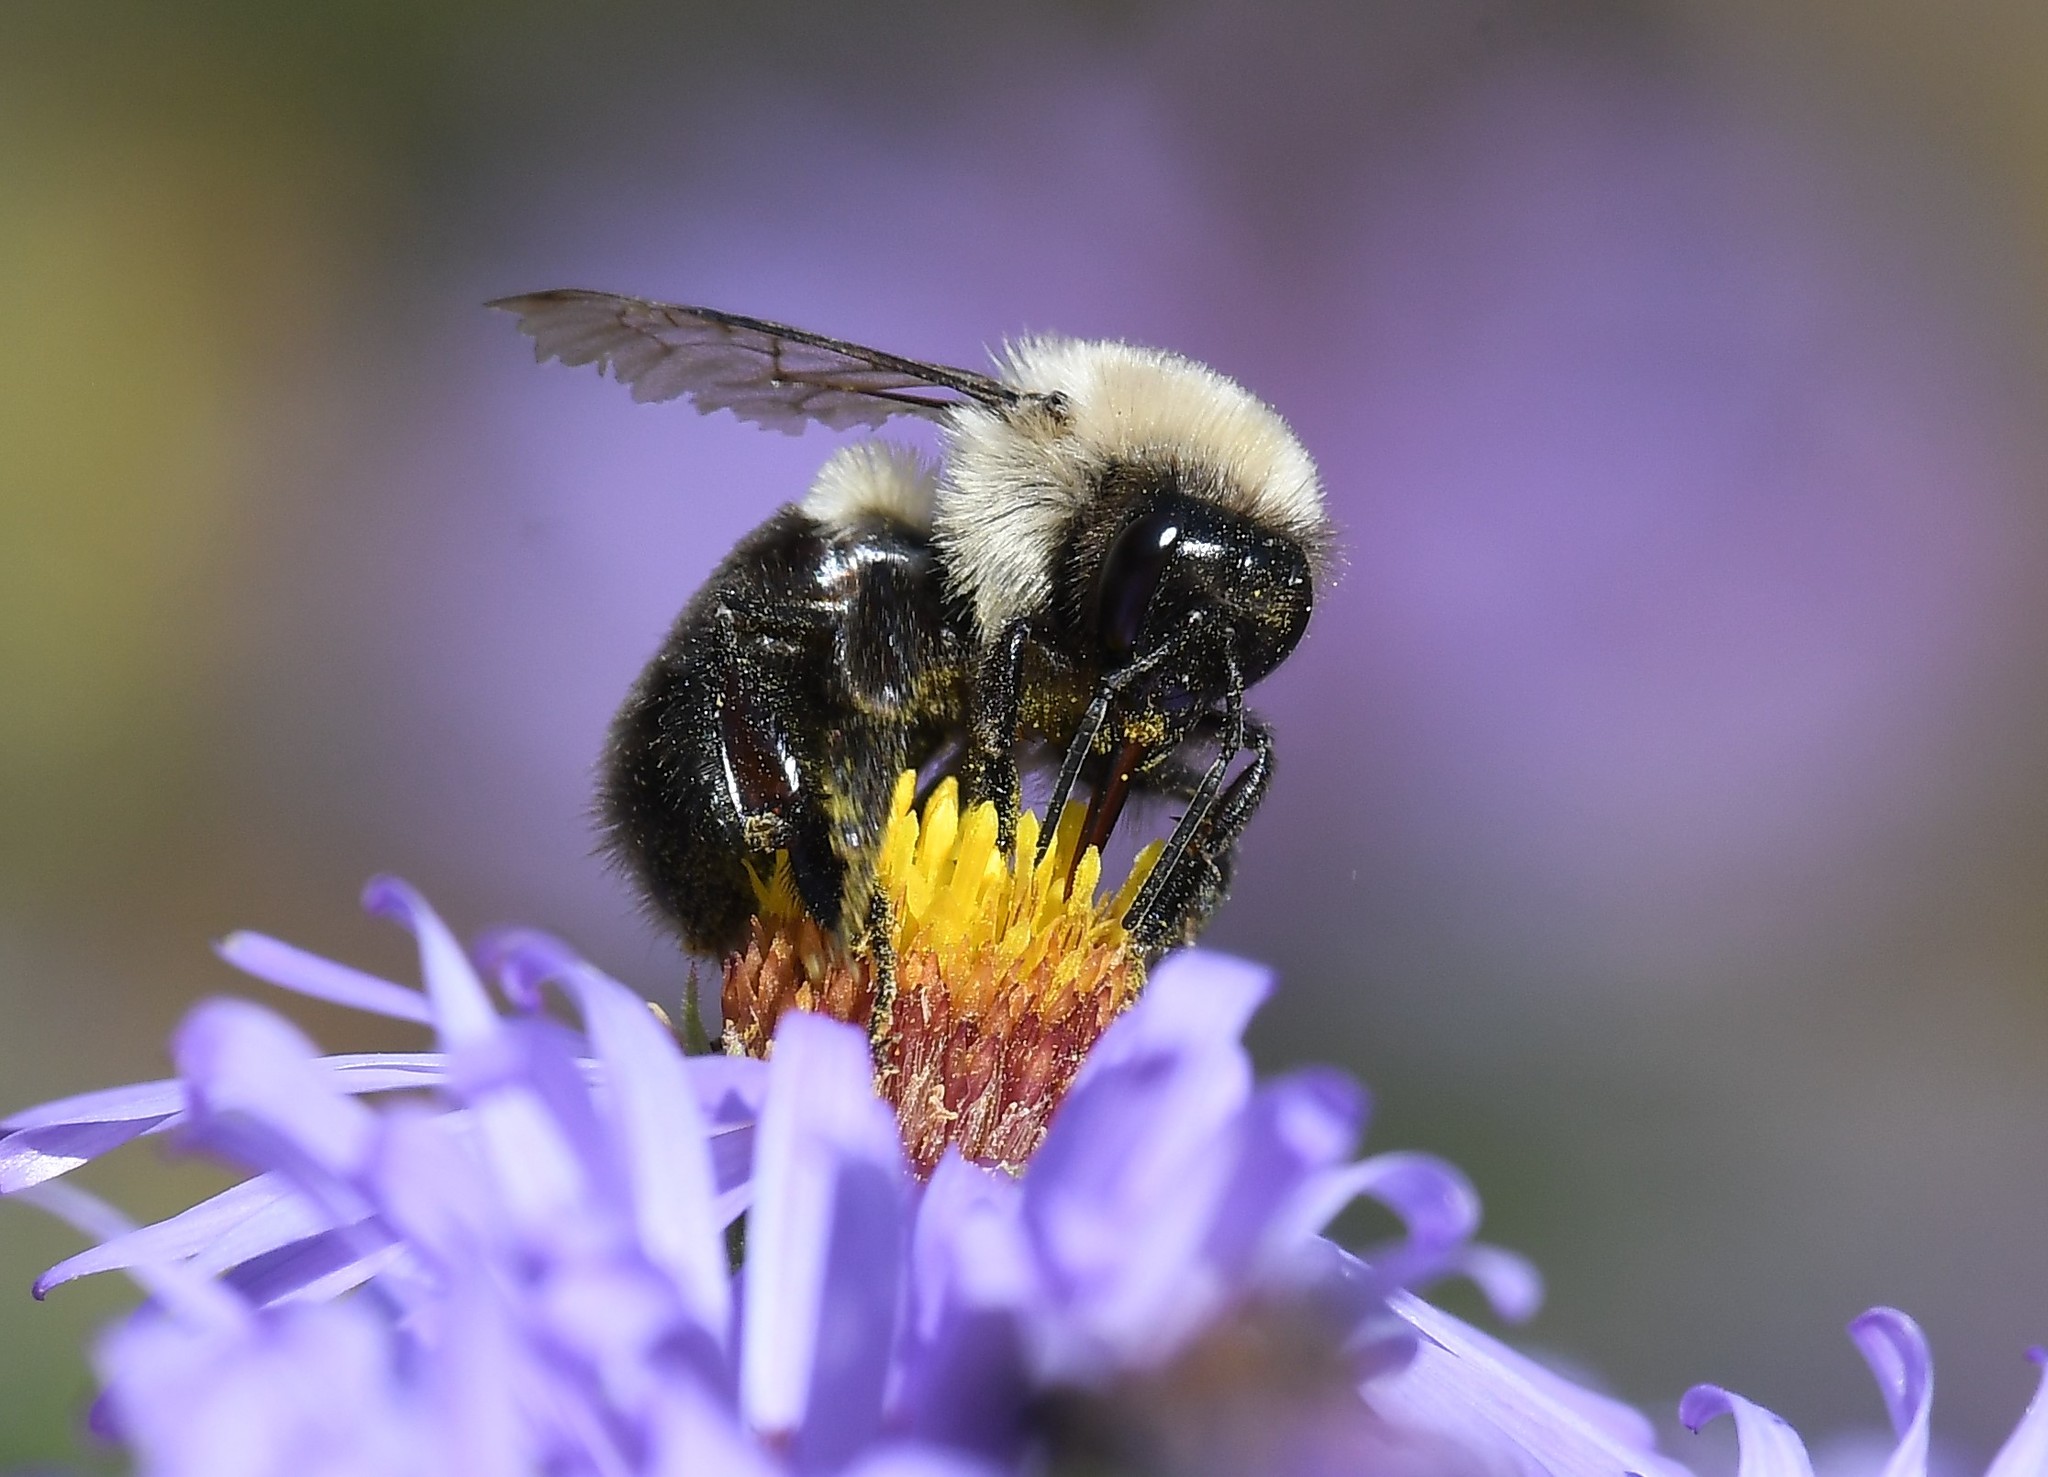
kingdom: Animalia
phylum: Arthropoda
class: Insecta
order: Hymenoptera
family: Apidae
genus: Bombus
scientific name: Bombus impatiens
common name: Common eastern bumble bee
